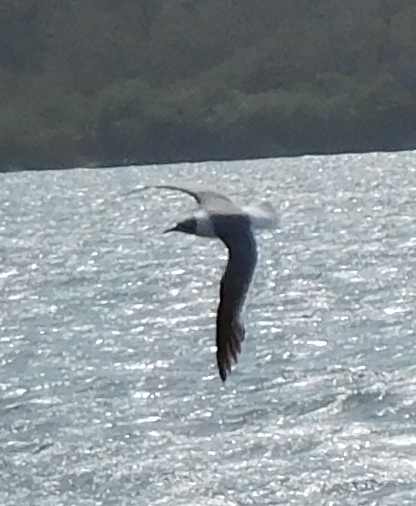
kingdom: Animalia
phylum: Chordata
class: Aves
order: Charadriiformes
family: Laridae
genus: Leucophaeus
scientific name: Leucophaeus atricilla
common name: Laughing gull
